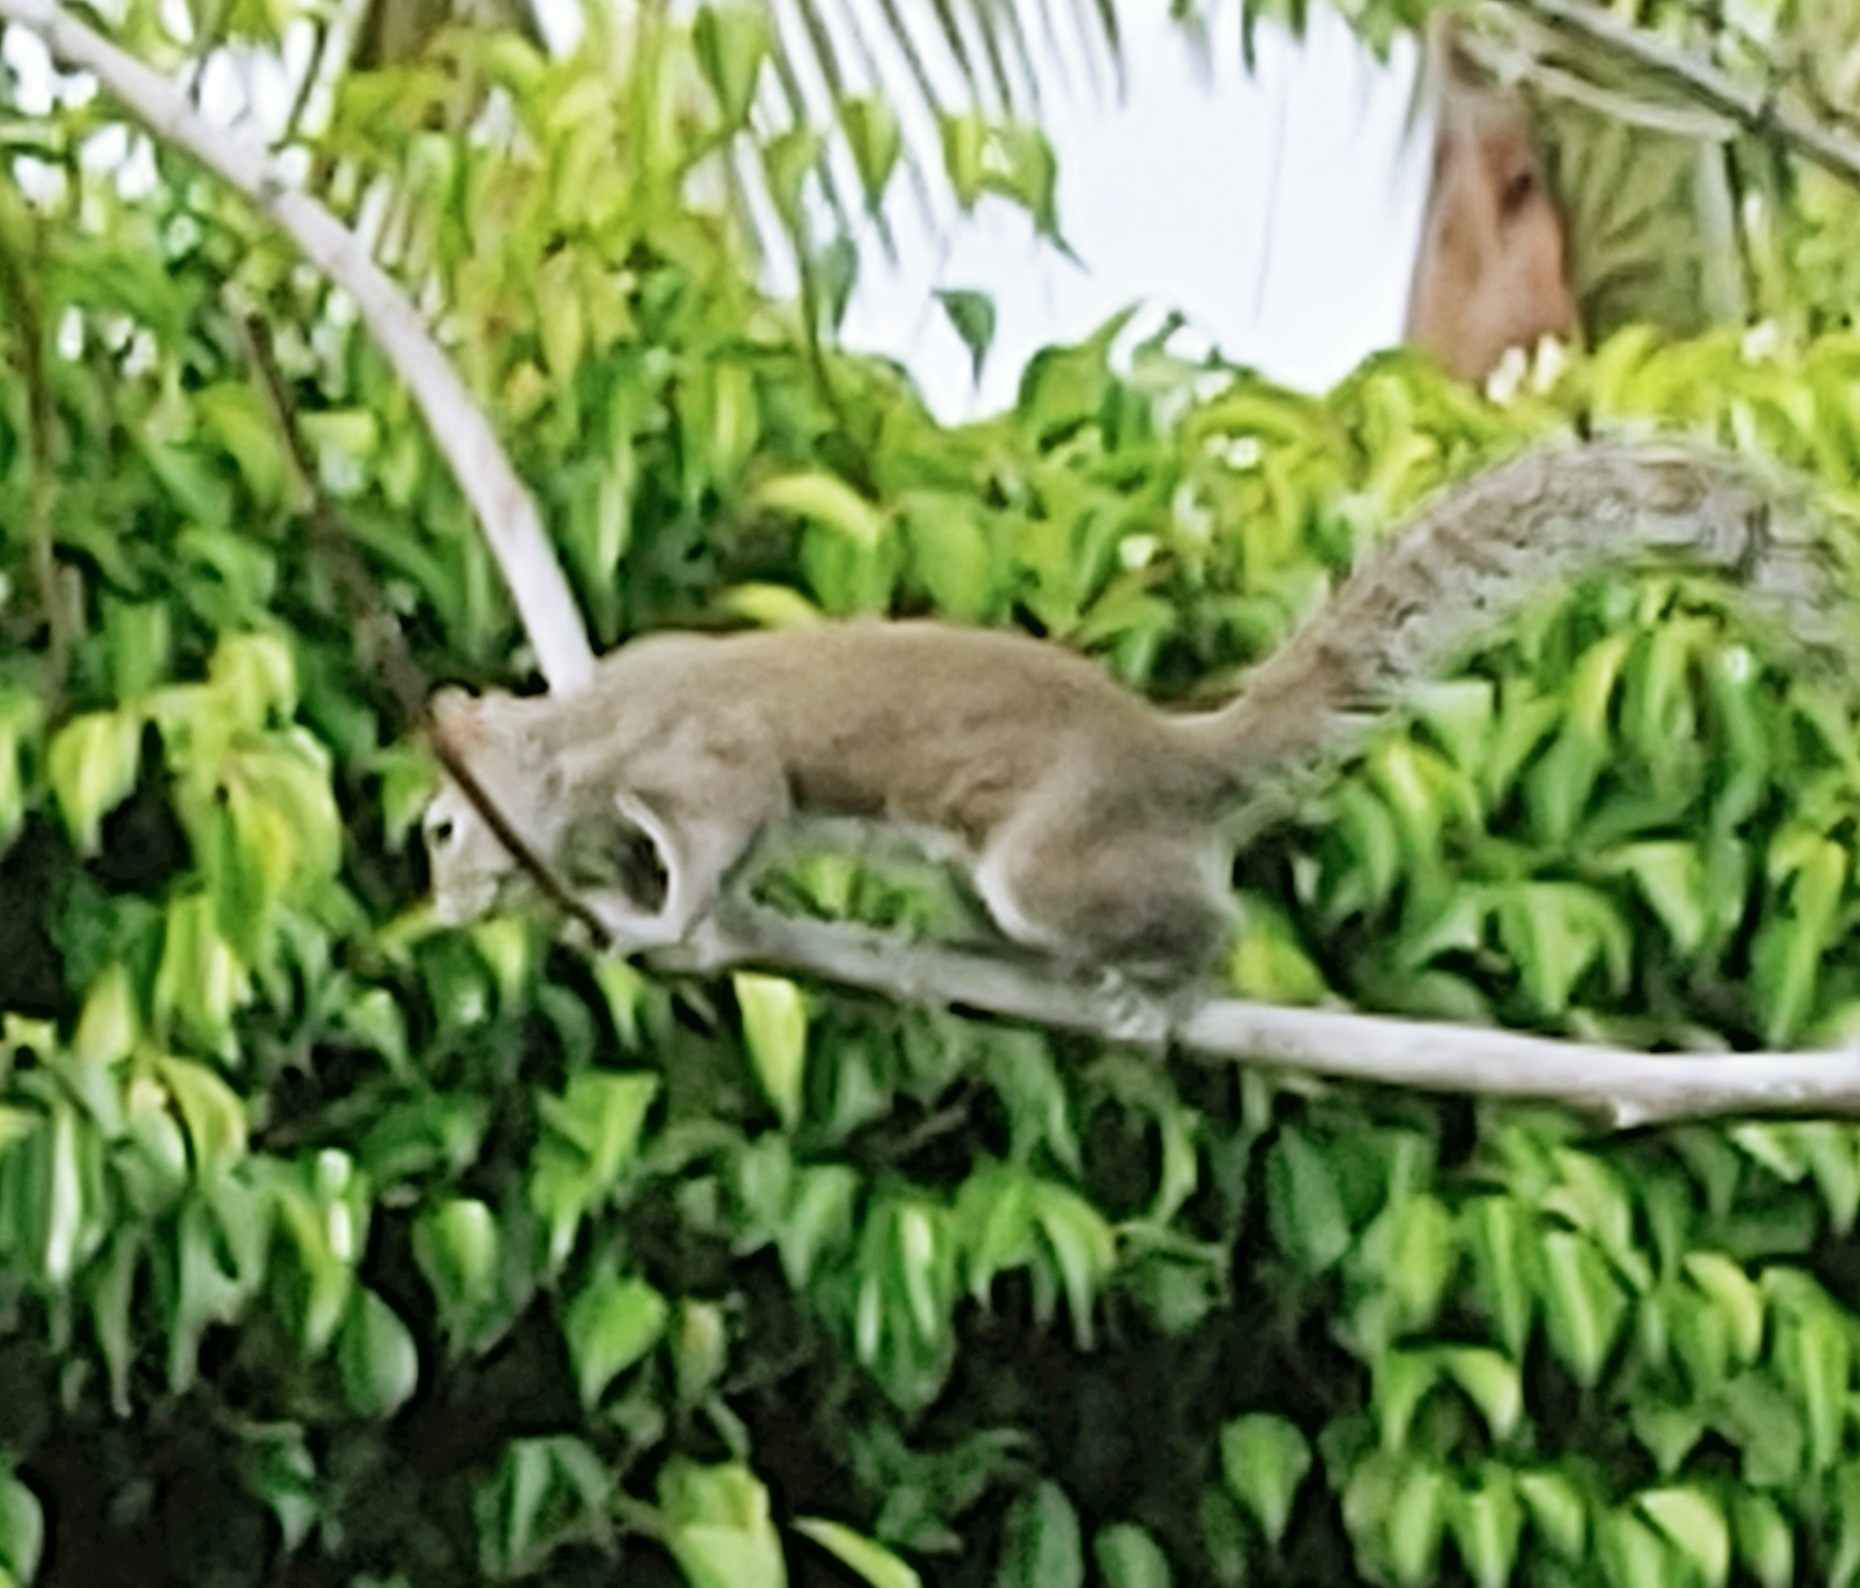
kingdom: Animalia
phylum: Chordata
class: Mammalia
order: Rodentia
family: Sciuridae
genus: Sciurus
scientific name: Sciurus carolinensis
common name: Eastern gray squirrel
